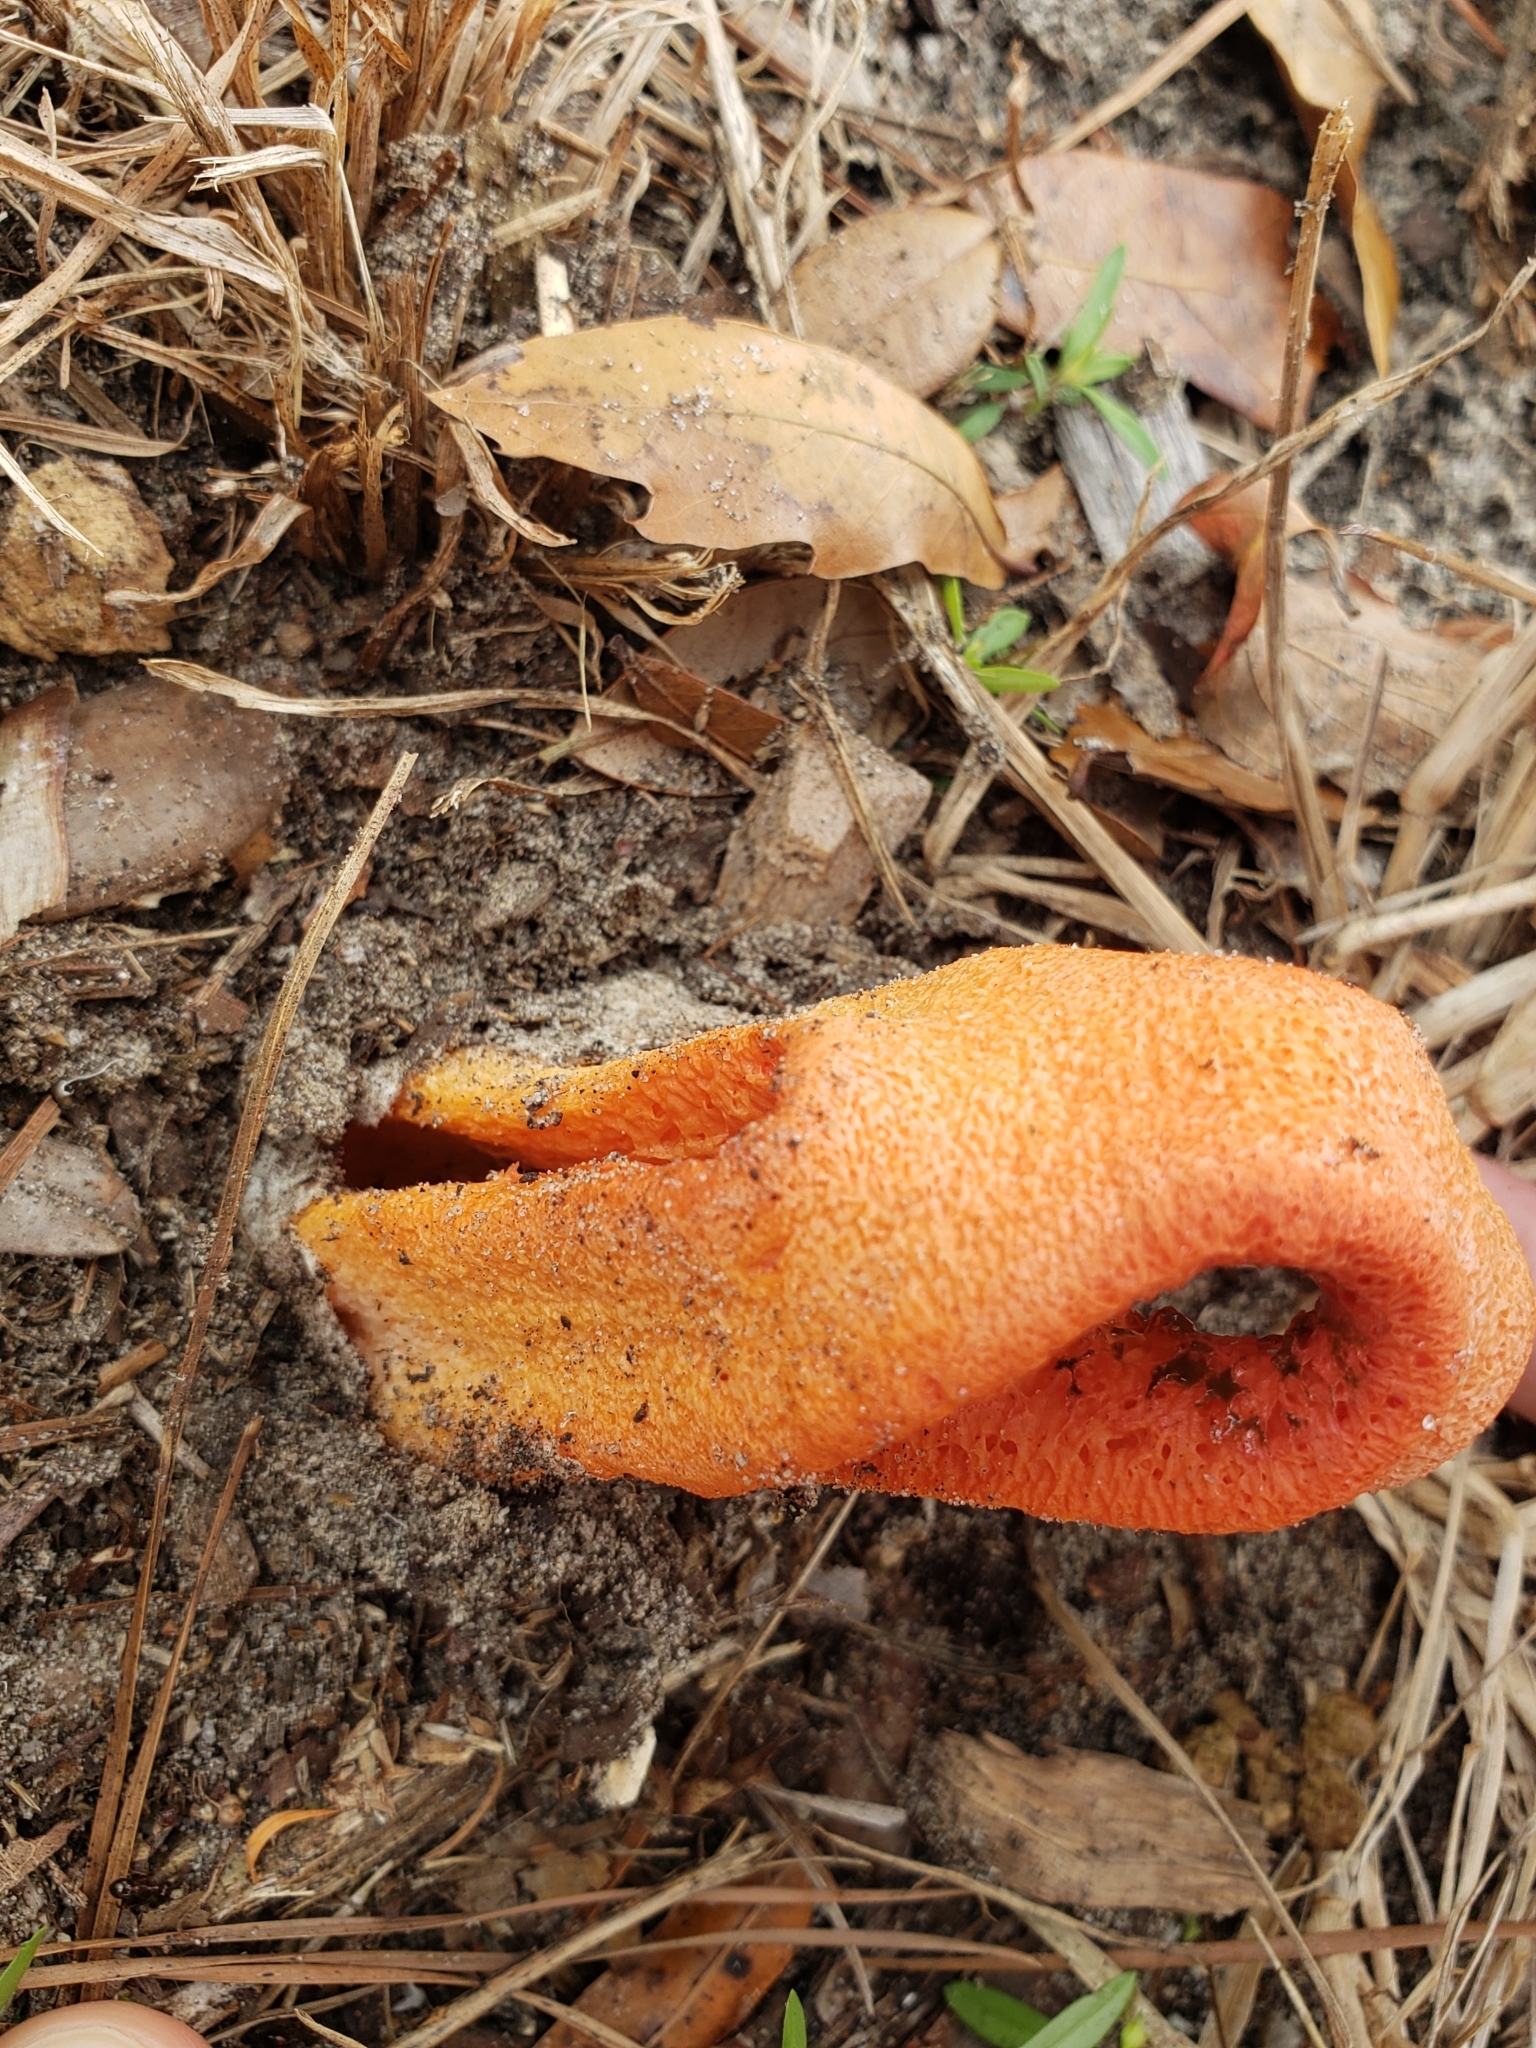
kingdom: Fungi
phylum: Basidiomycota
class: Agaricomycetes
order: Phallales
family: Phallaceae
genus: Clathrus
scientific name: Clathrus columnatus
